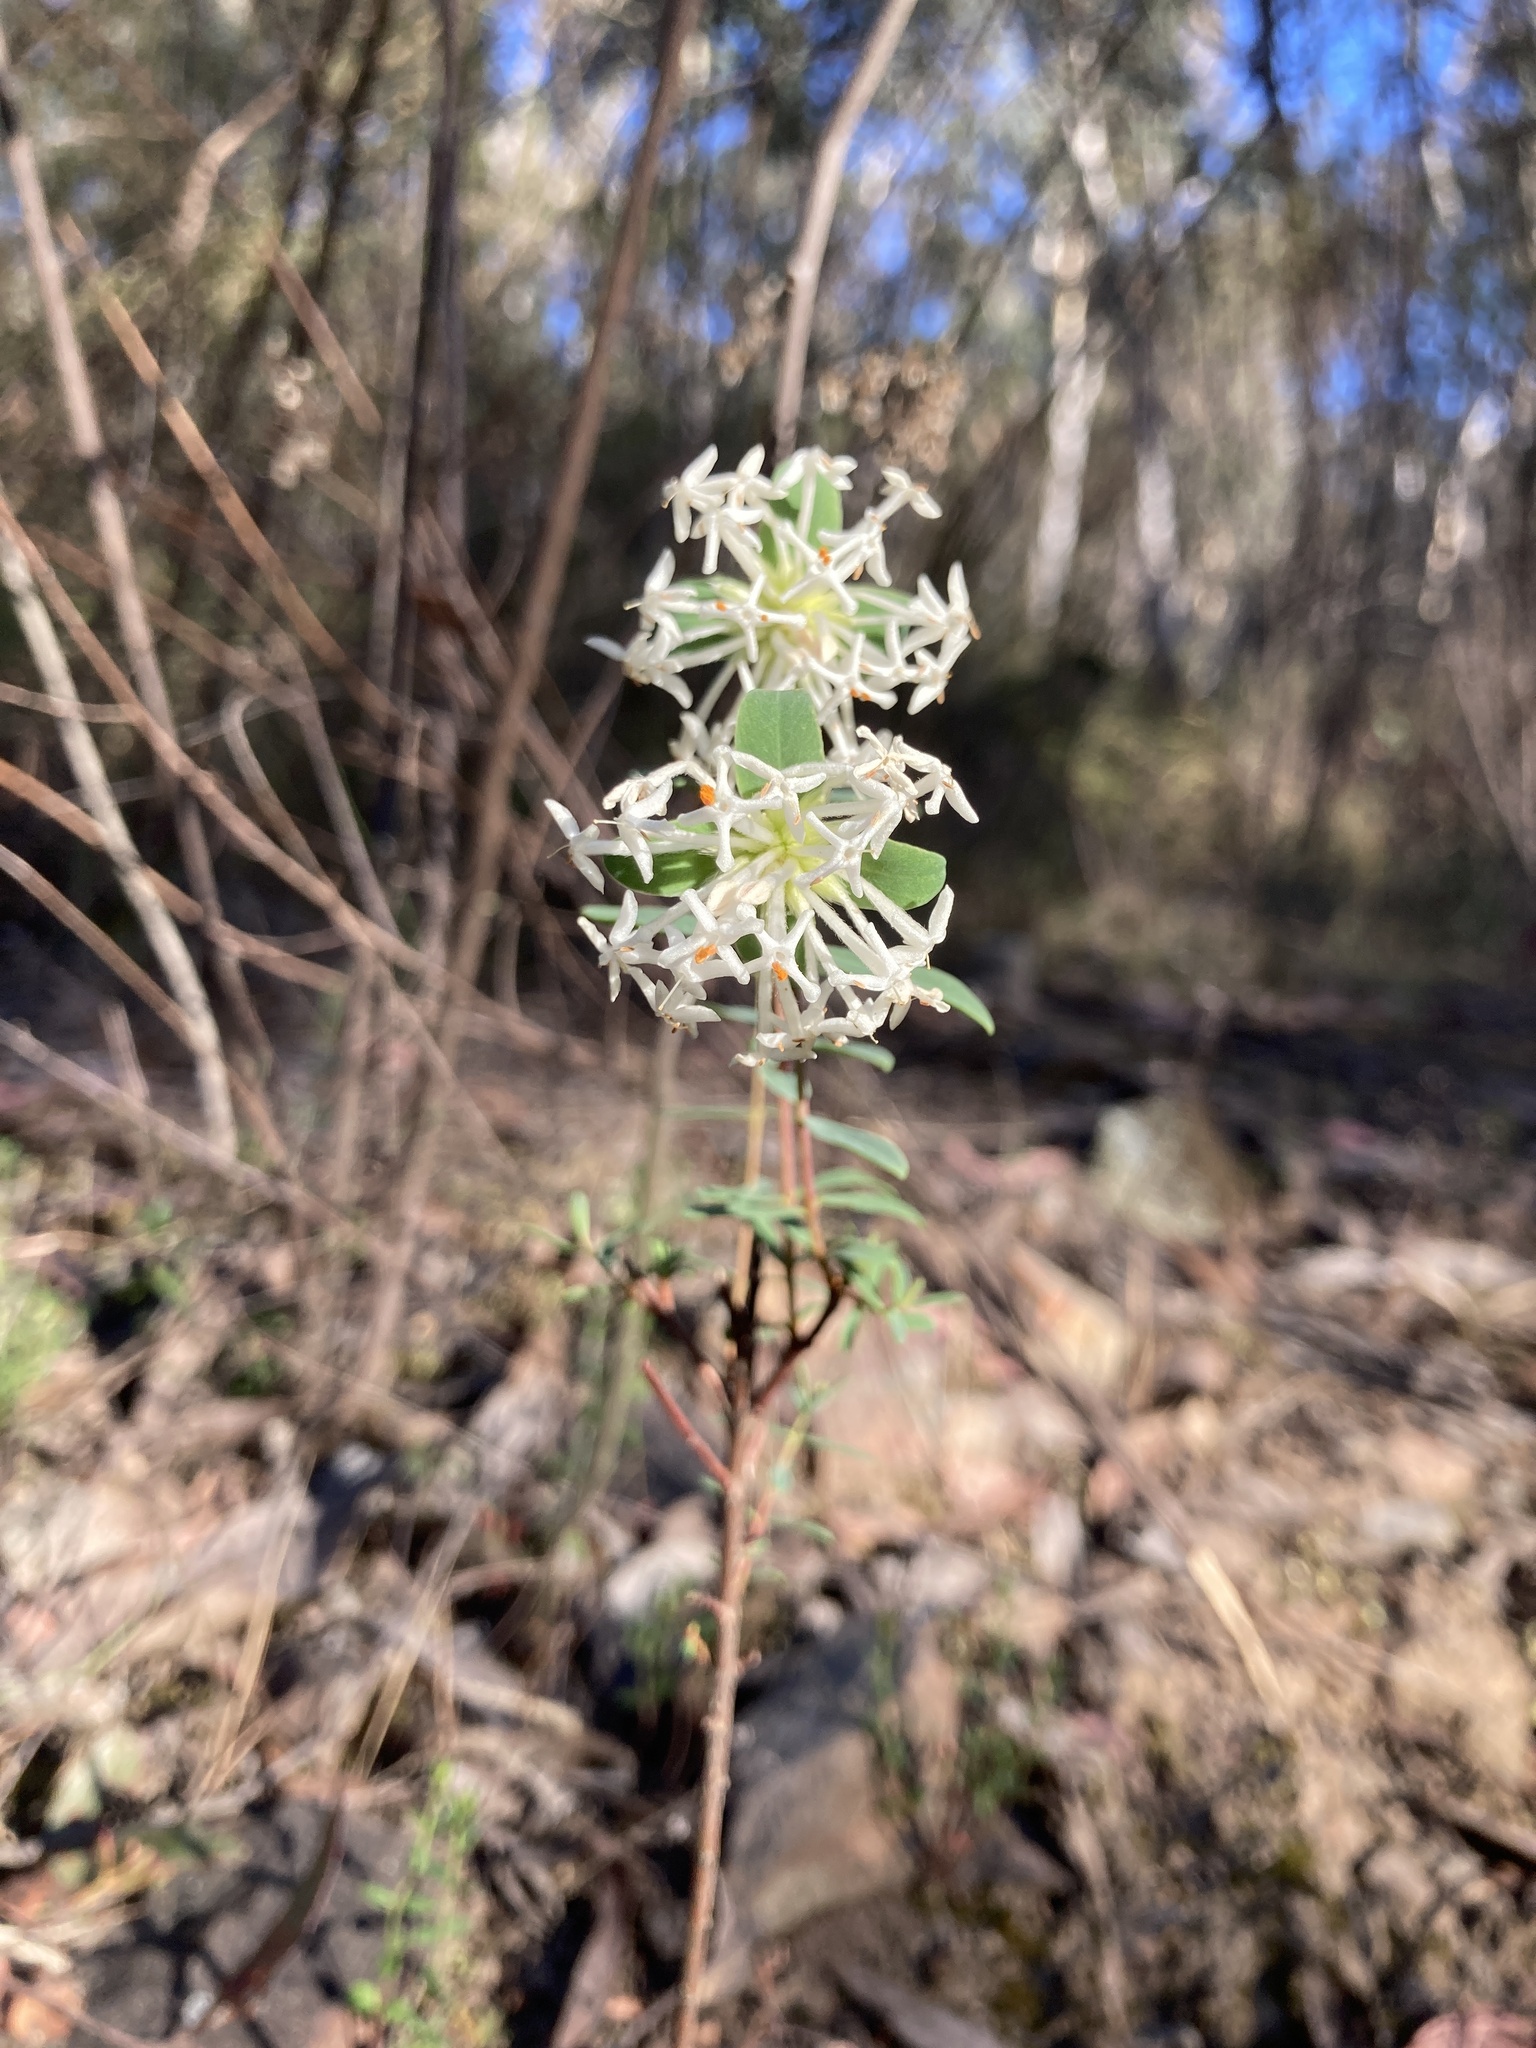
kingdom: Plantae
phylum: Tracheophyta
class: Magnoliopsida
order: Malvales
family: Thymelaeaceae
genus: Pimelea
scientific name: Pimelea linifolia
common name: Queen-of-the-bush
